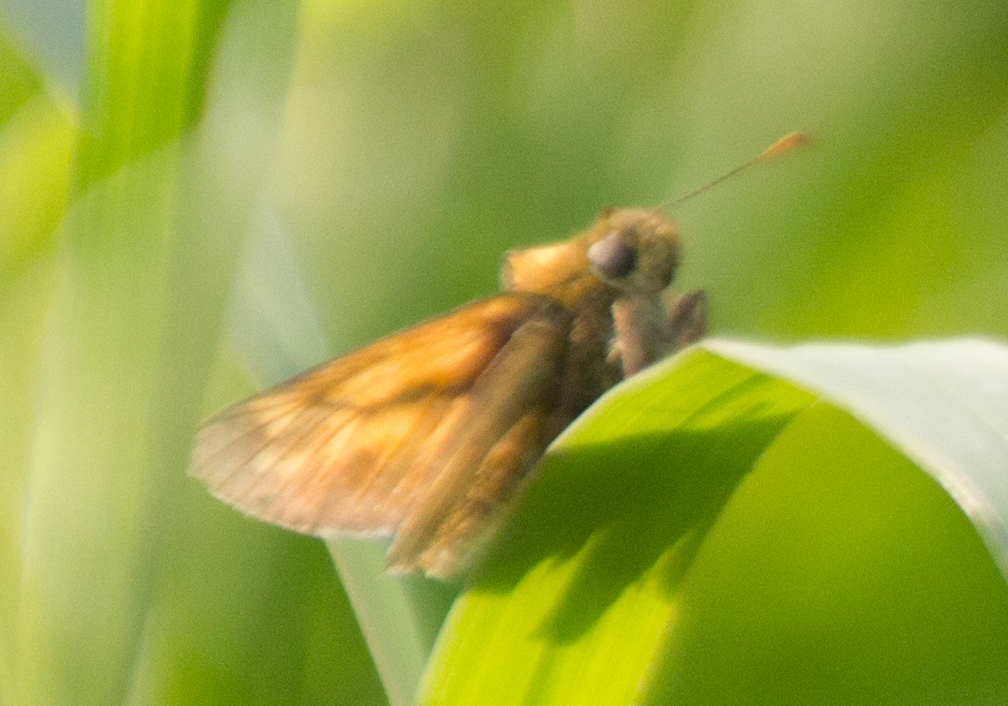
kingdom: Animalia
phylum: Arthropoda
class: Insecta
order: Lepidoptera
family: Hesperiidae
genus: Ochlodes
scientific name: Ochlodes venata
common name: Large skipper
